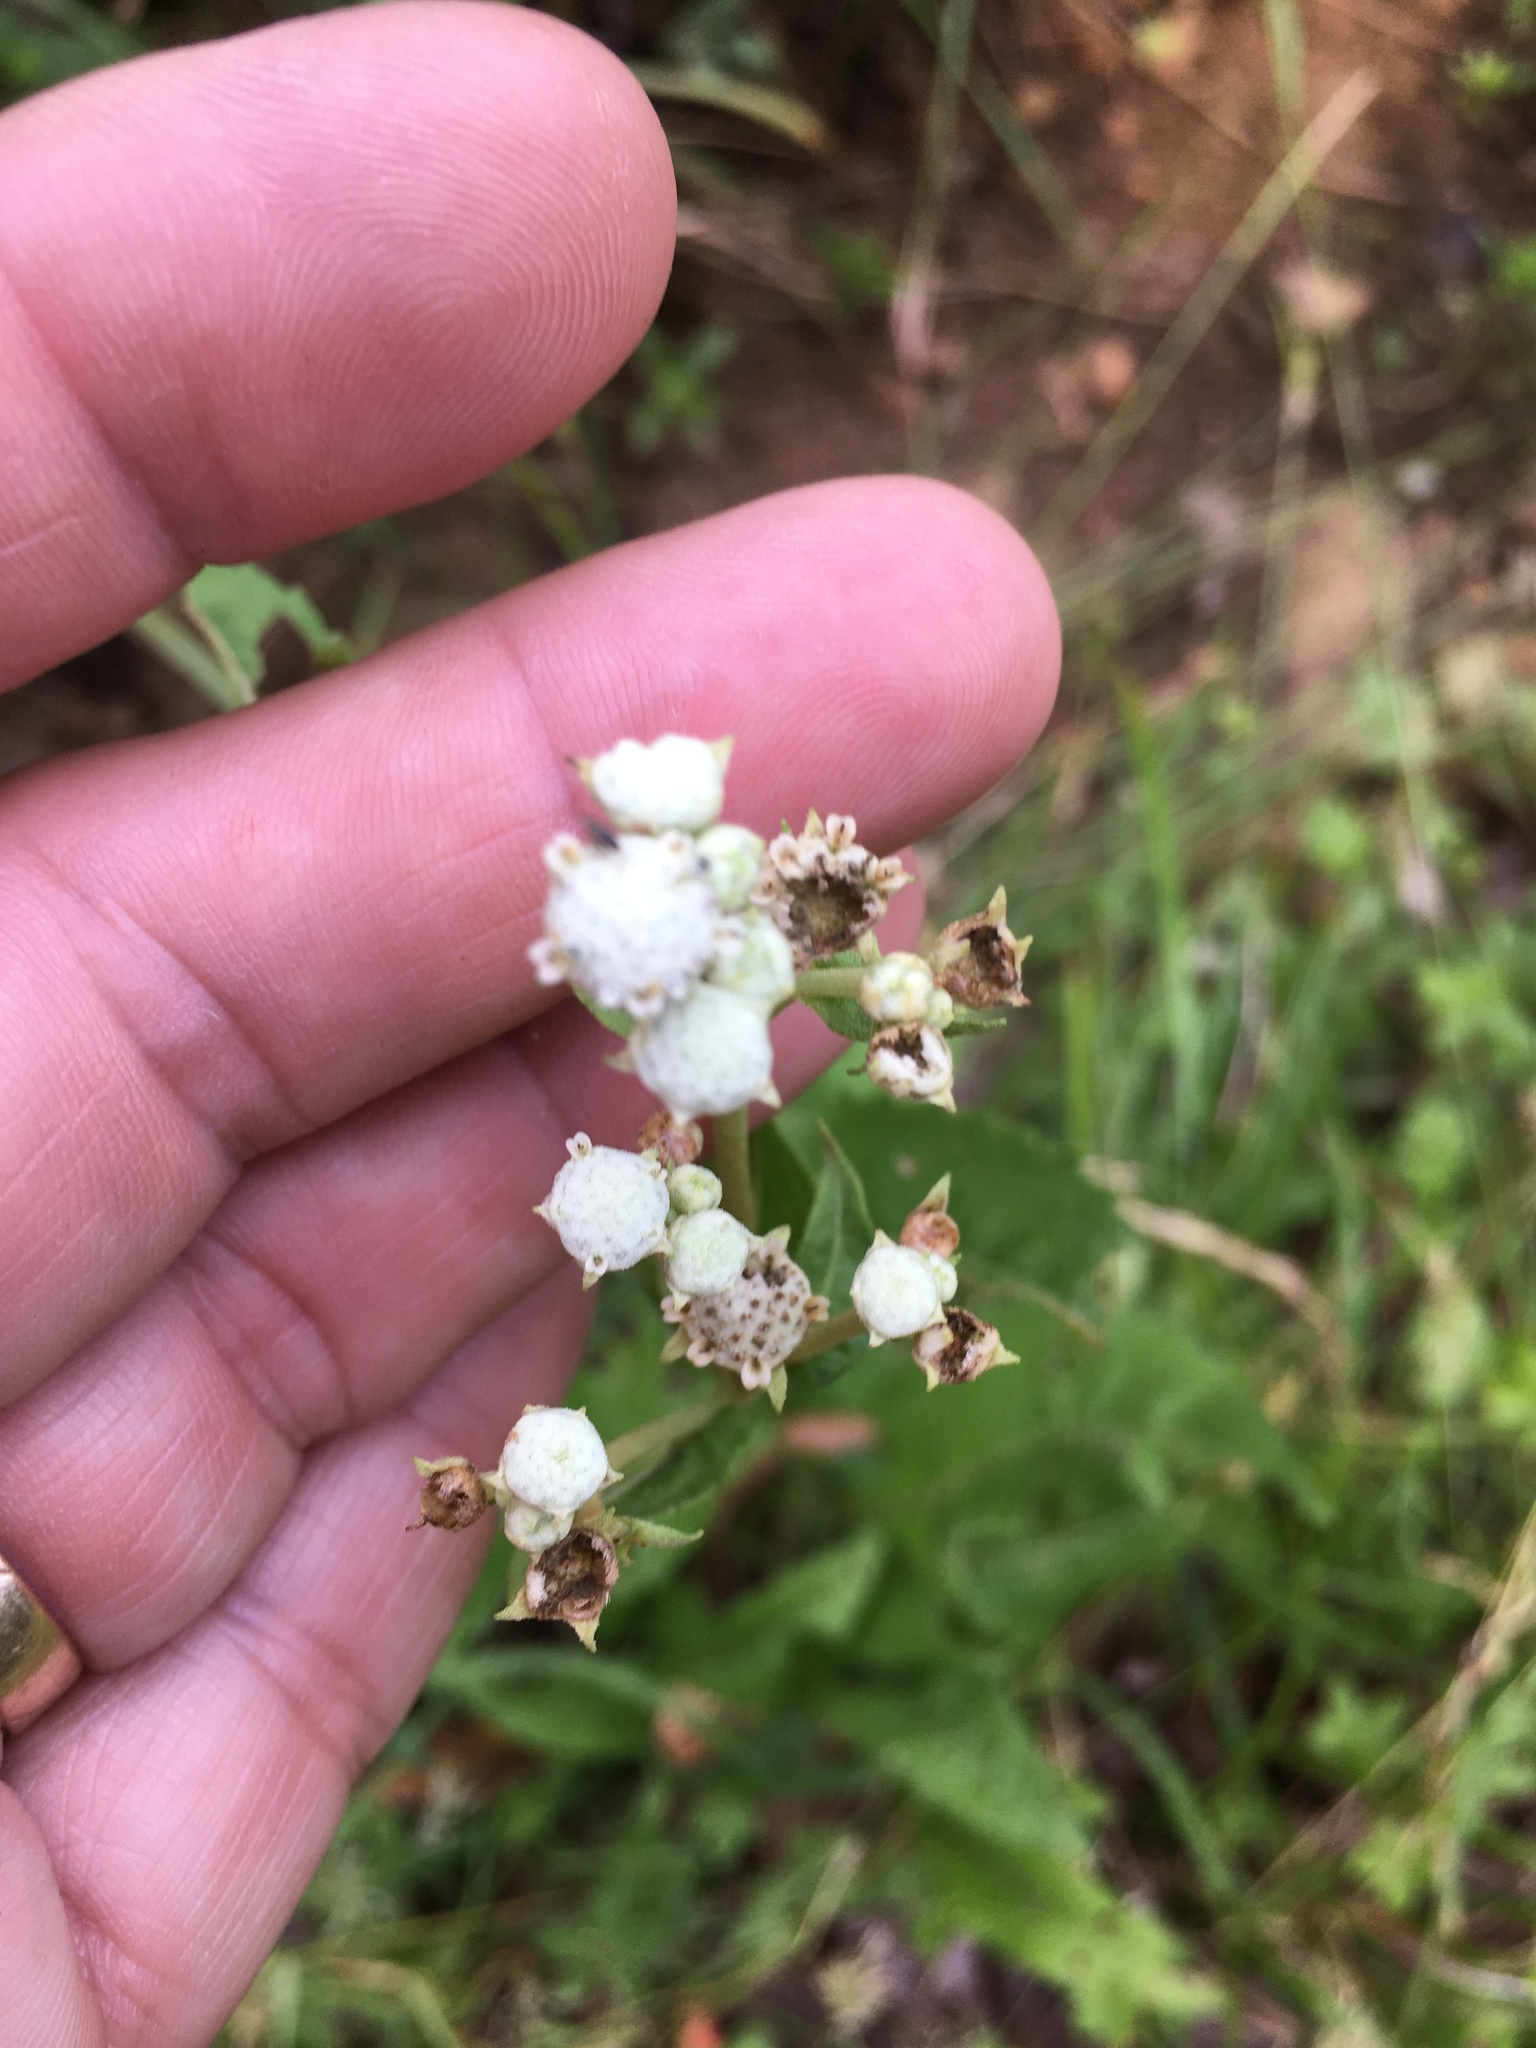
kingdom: Plantae
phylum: Tracheophyta
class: Magnoliopsida
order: Asterales
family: Asteraceae
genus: Parthenium
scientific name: Parthenium integrifolium
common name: American feverfew
